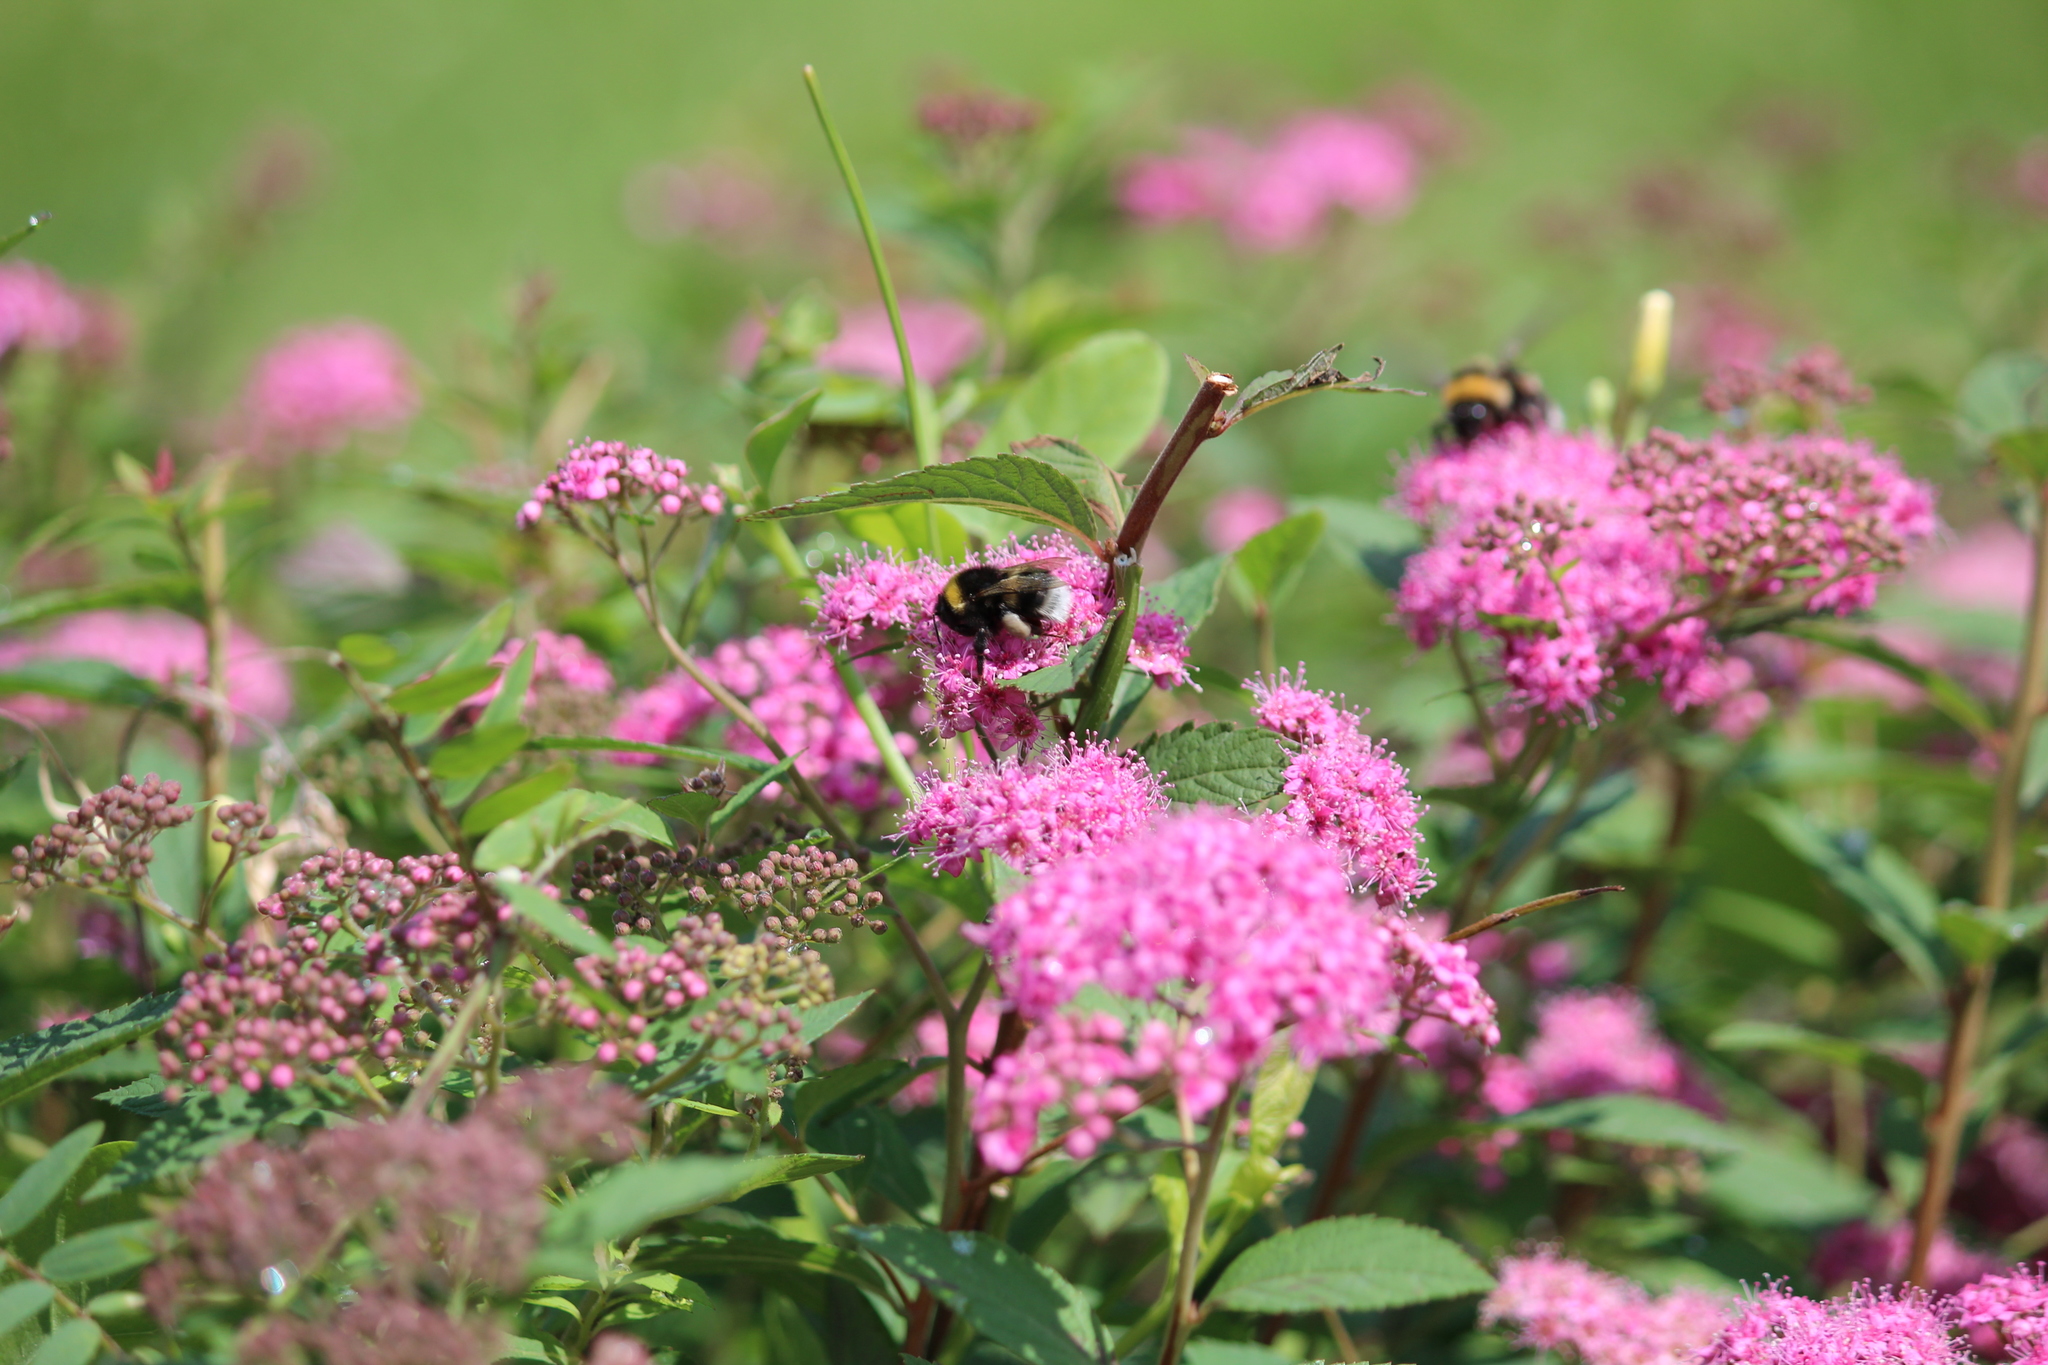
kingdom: Animalia
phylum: Arthropoda
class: Insecta
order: Hymenoptera
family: Apidae
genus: Bombus
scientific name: Bombus
